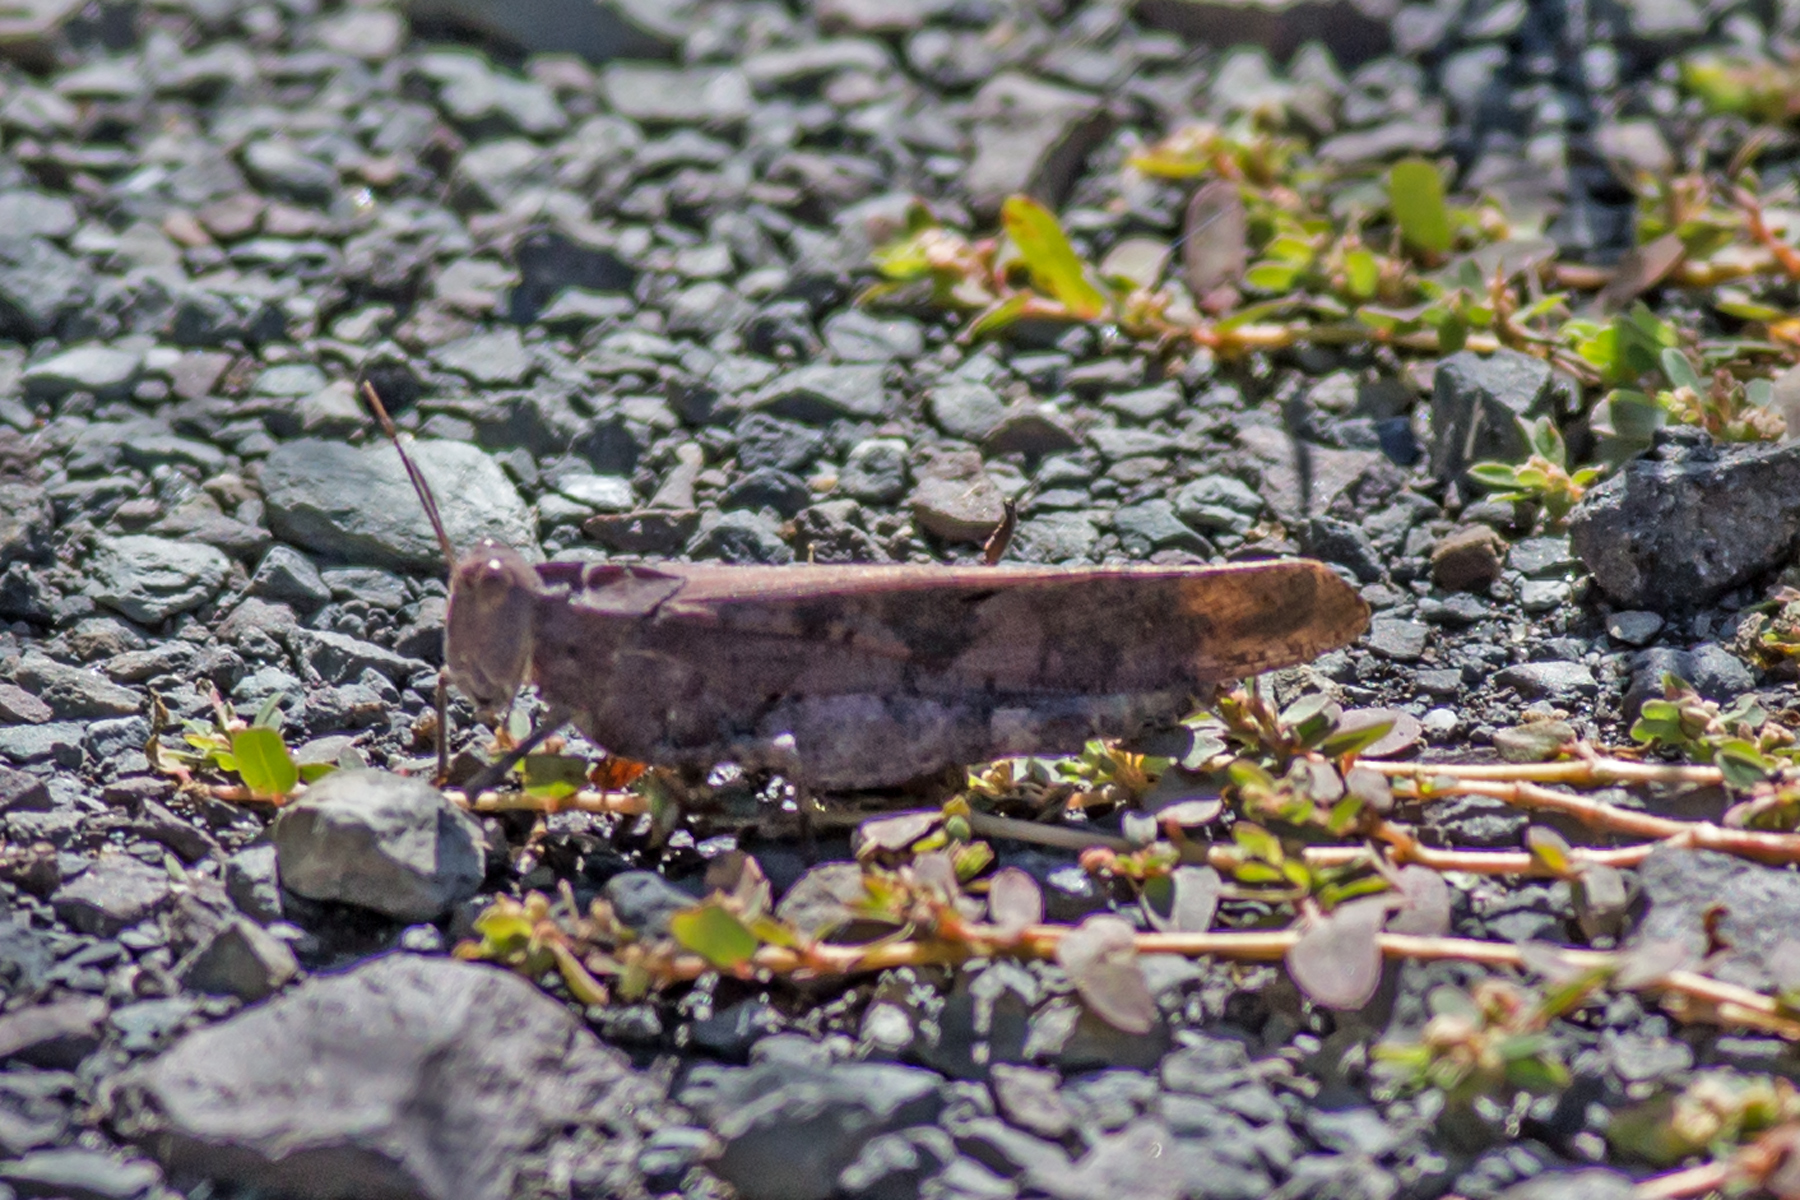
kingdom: Animalia
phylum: Arthropoda
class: Insecta
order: Orthoptera
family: Acrididae
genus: Dissosteira
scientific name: Dissosteira carolina
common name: Carolina grasshopper
